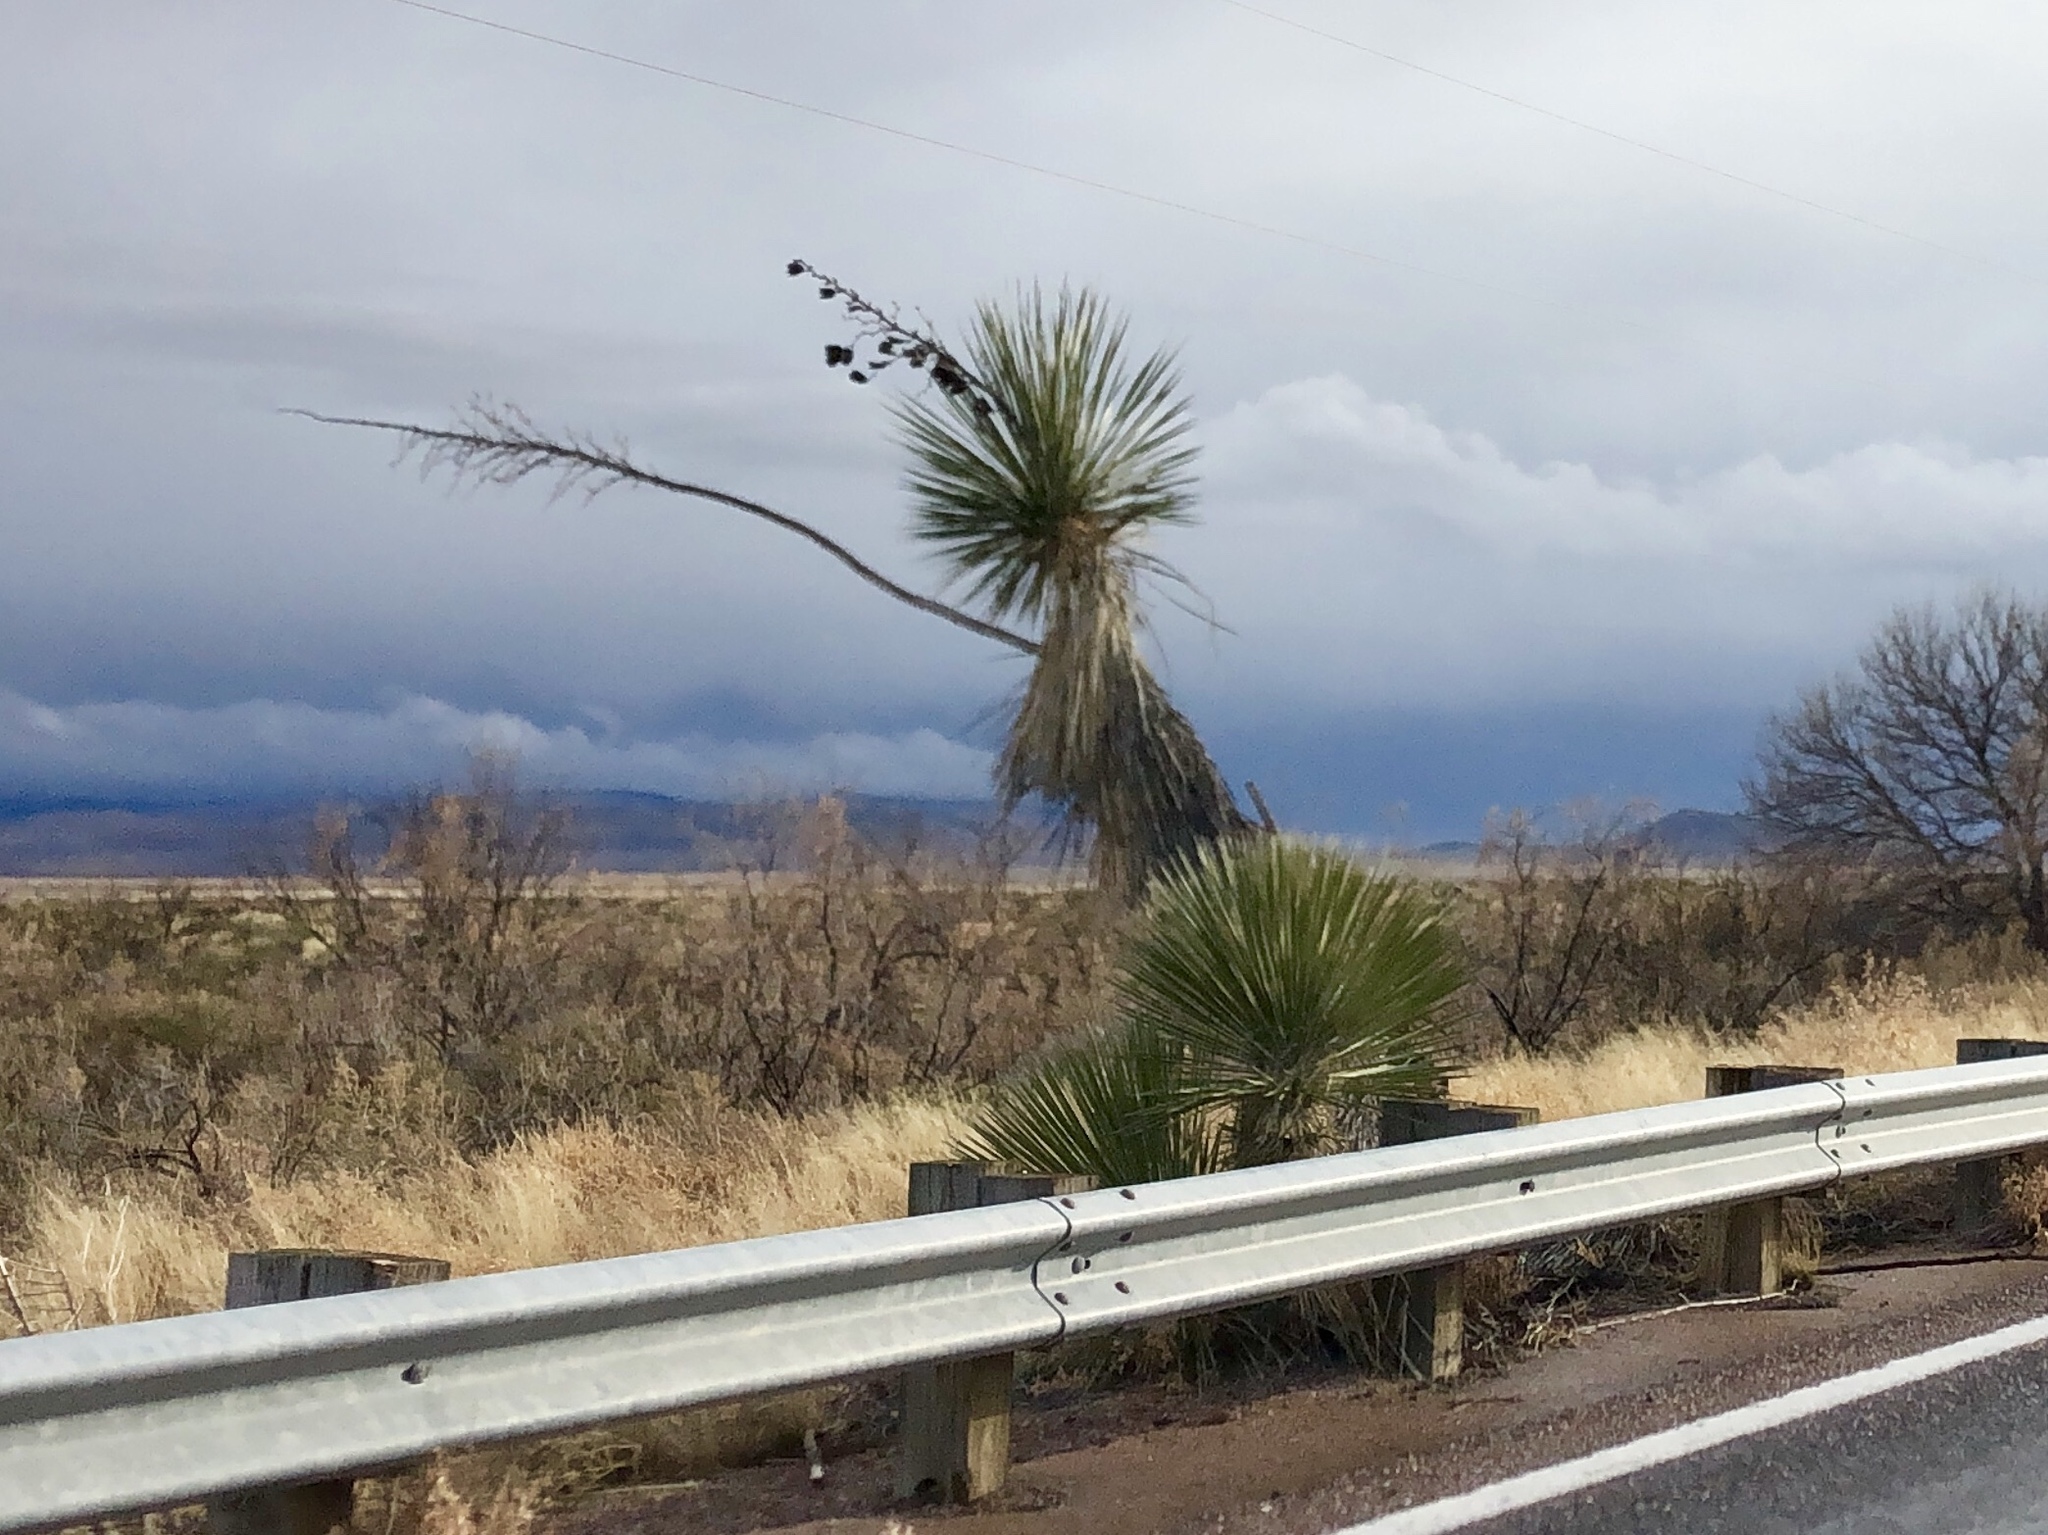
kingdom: Plantae
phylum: Tracheophyta
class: Liliopsida
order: Asparagales
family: Asparagaceae
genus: Yucca
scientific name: Yucca elata
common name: Palmella
